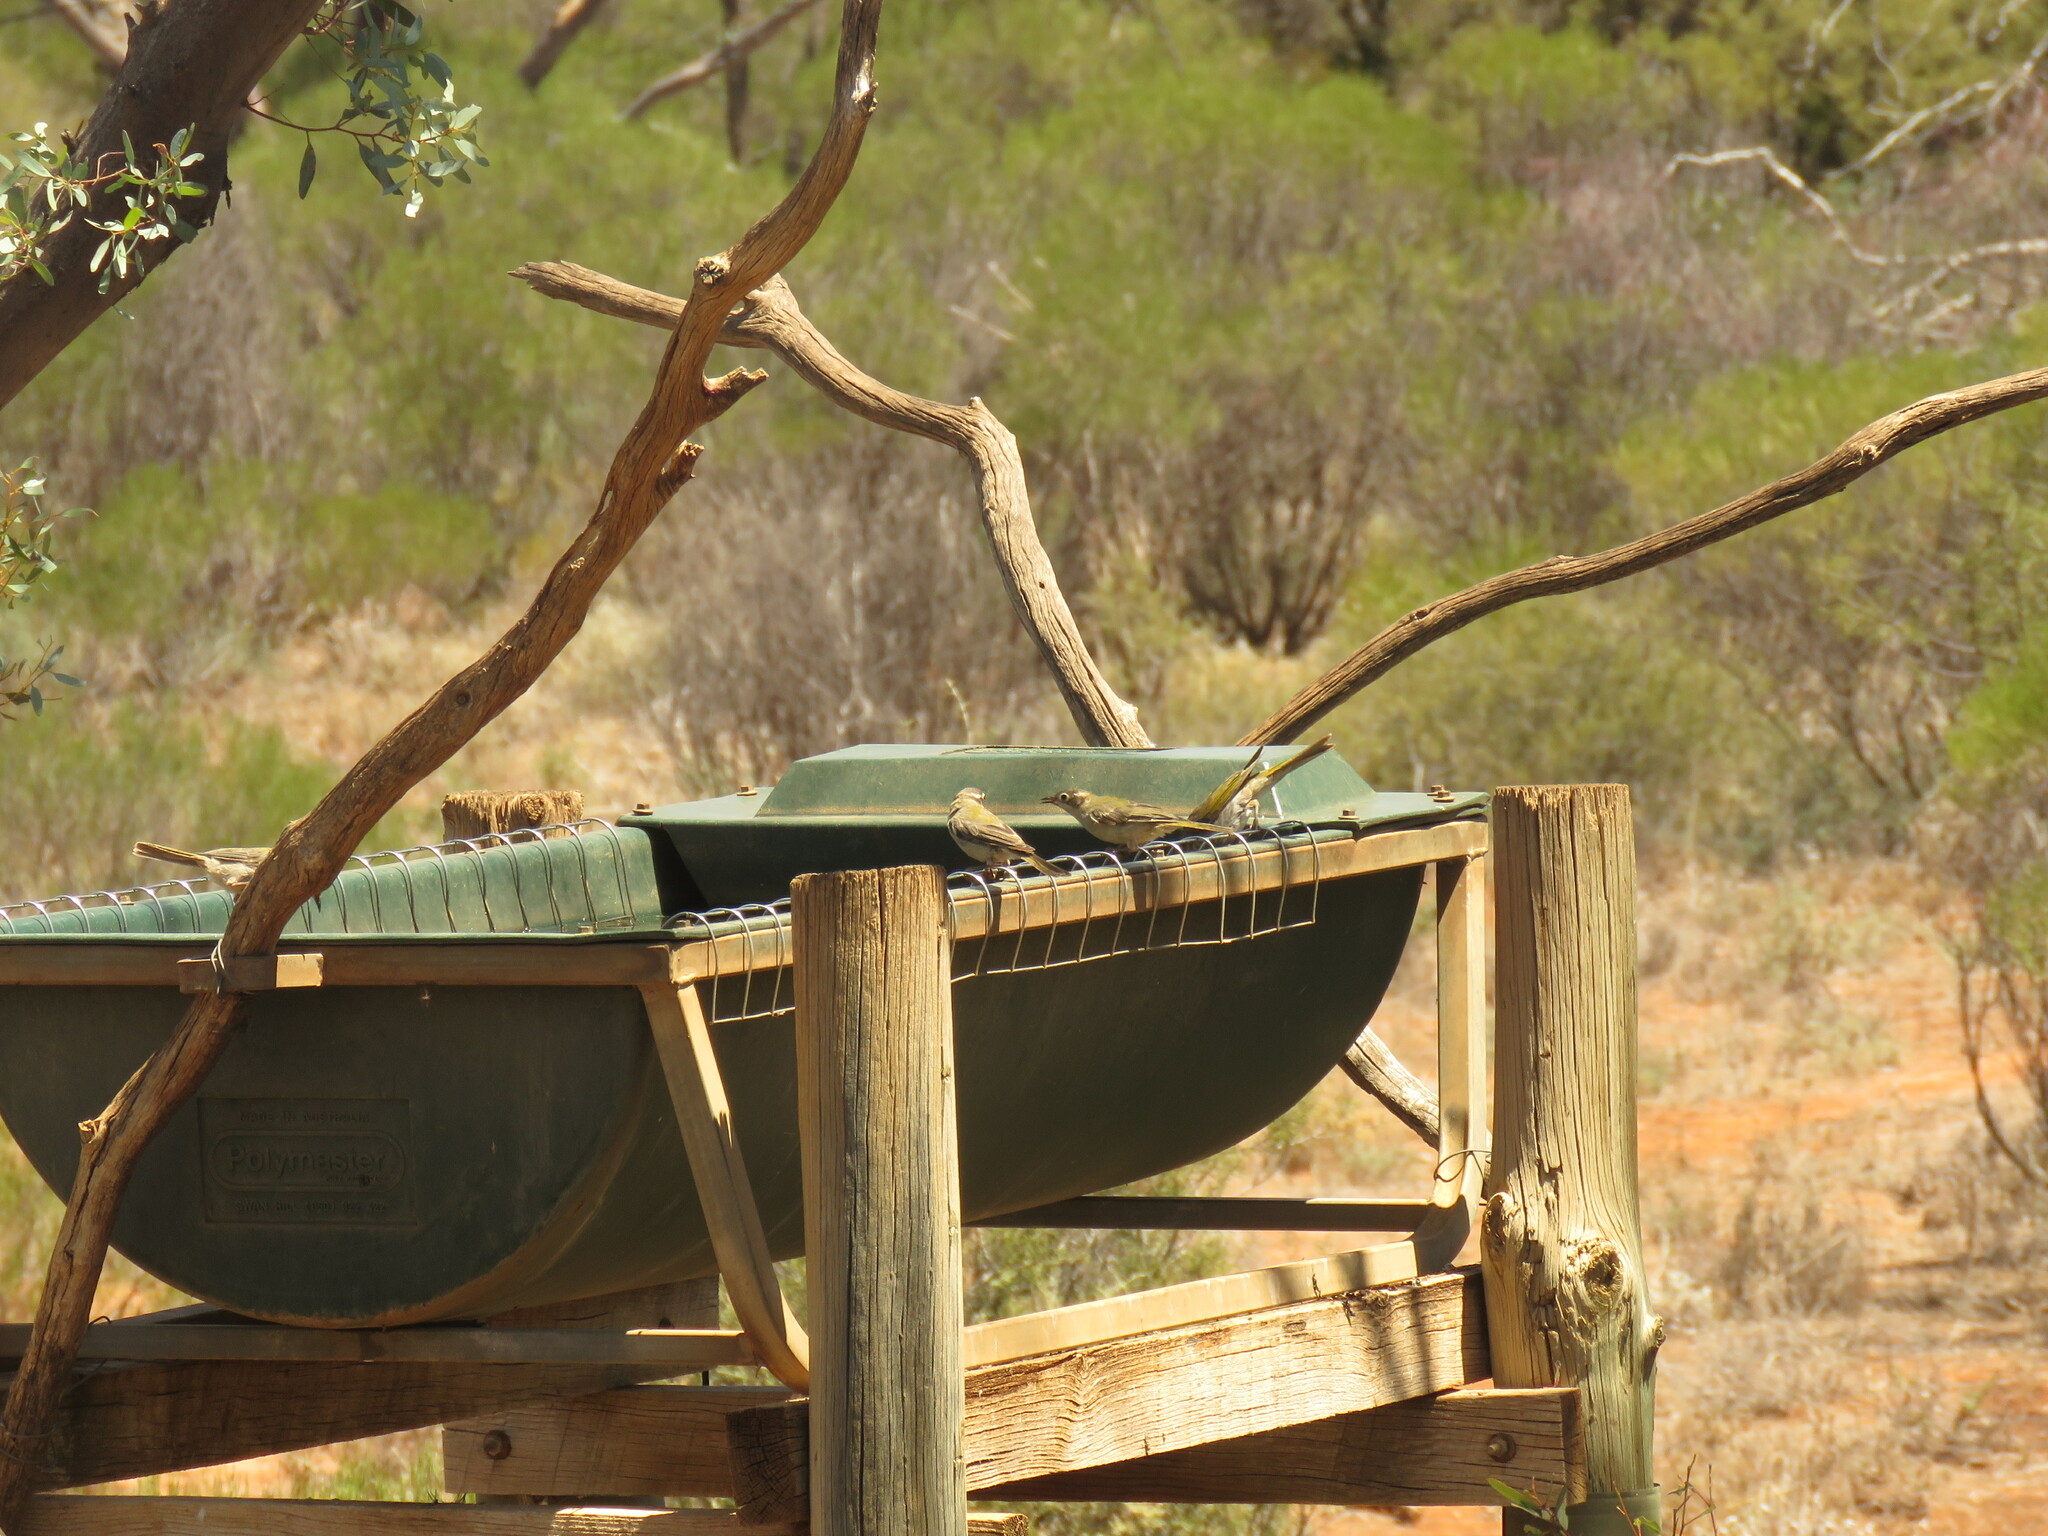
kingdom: Animalia
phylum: Chordata
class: Aves
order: Passeriformes
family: Meliphagidae
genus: Melithreptus
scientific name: Melithreptus brevirostris
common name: Brown-headed honeyeater
